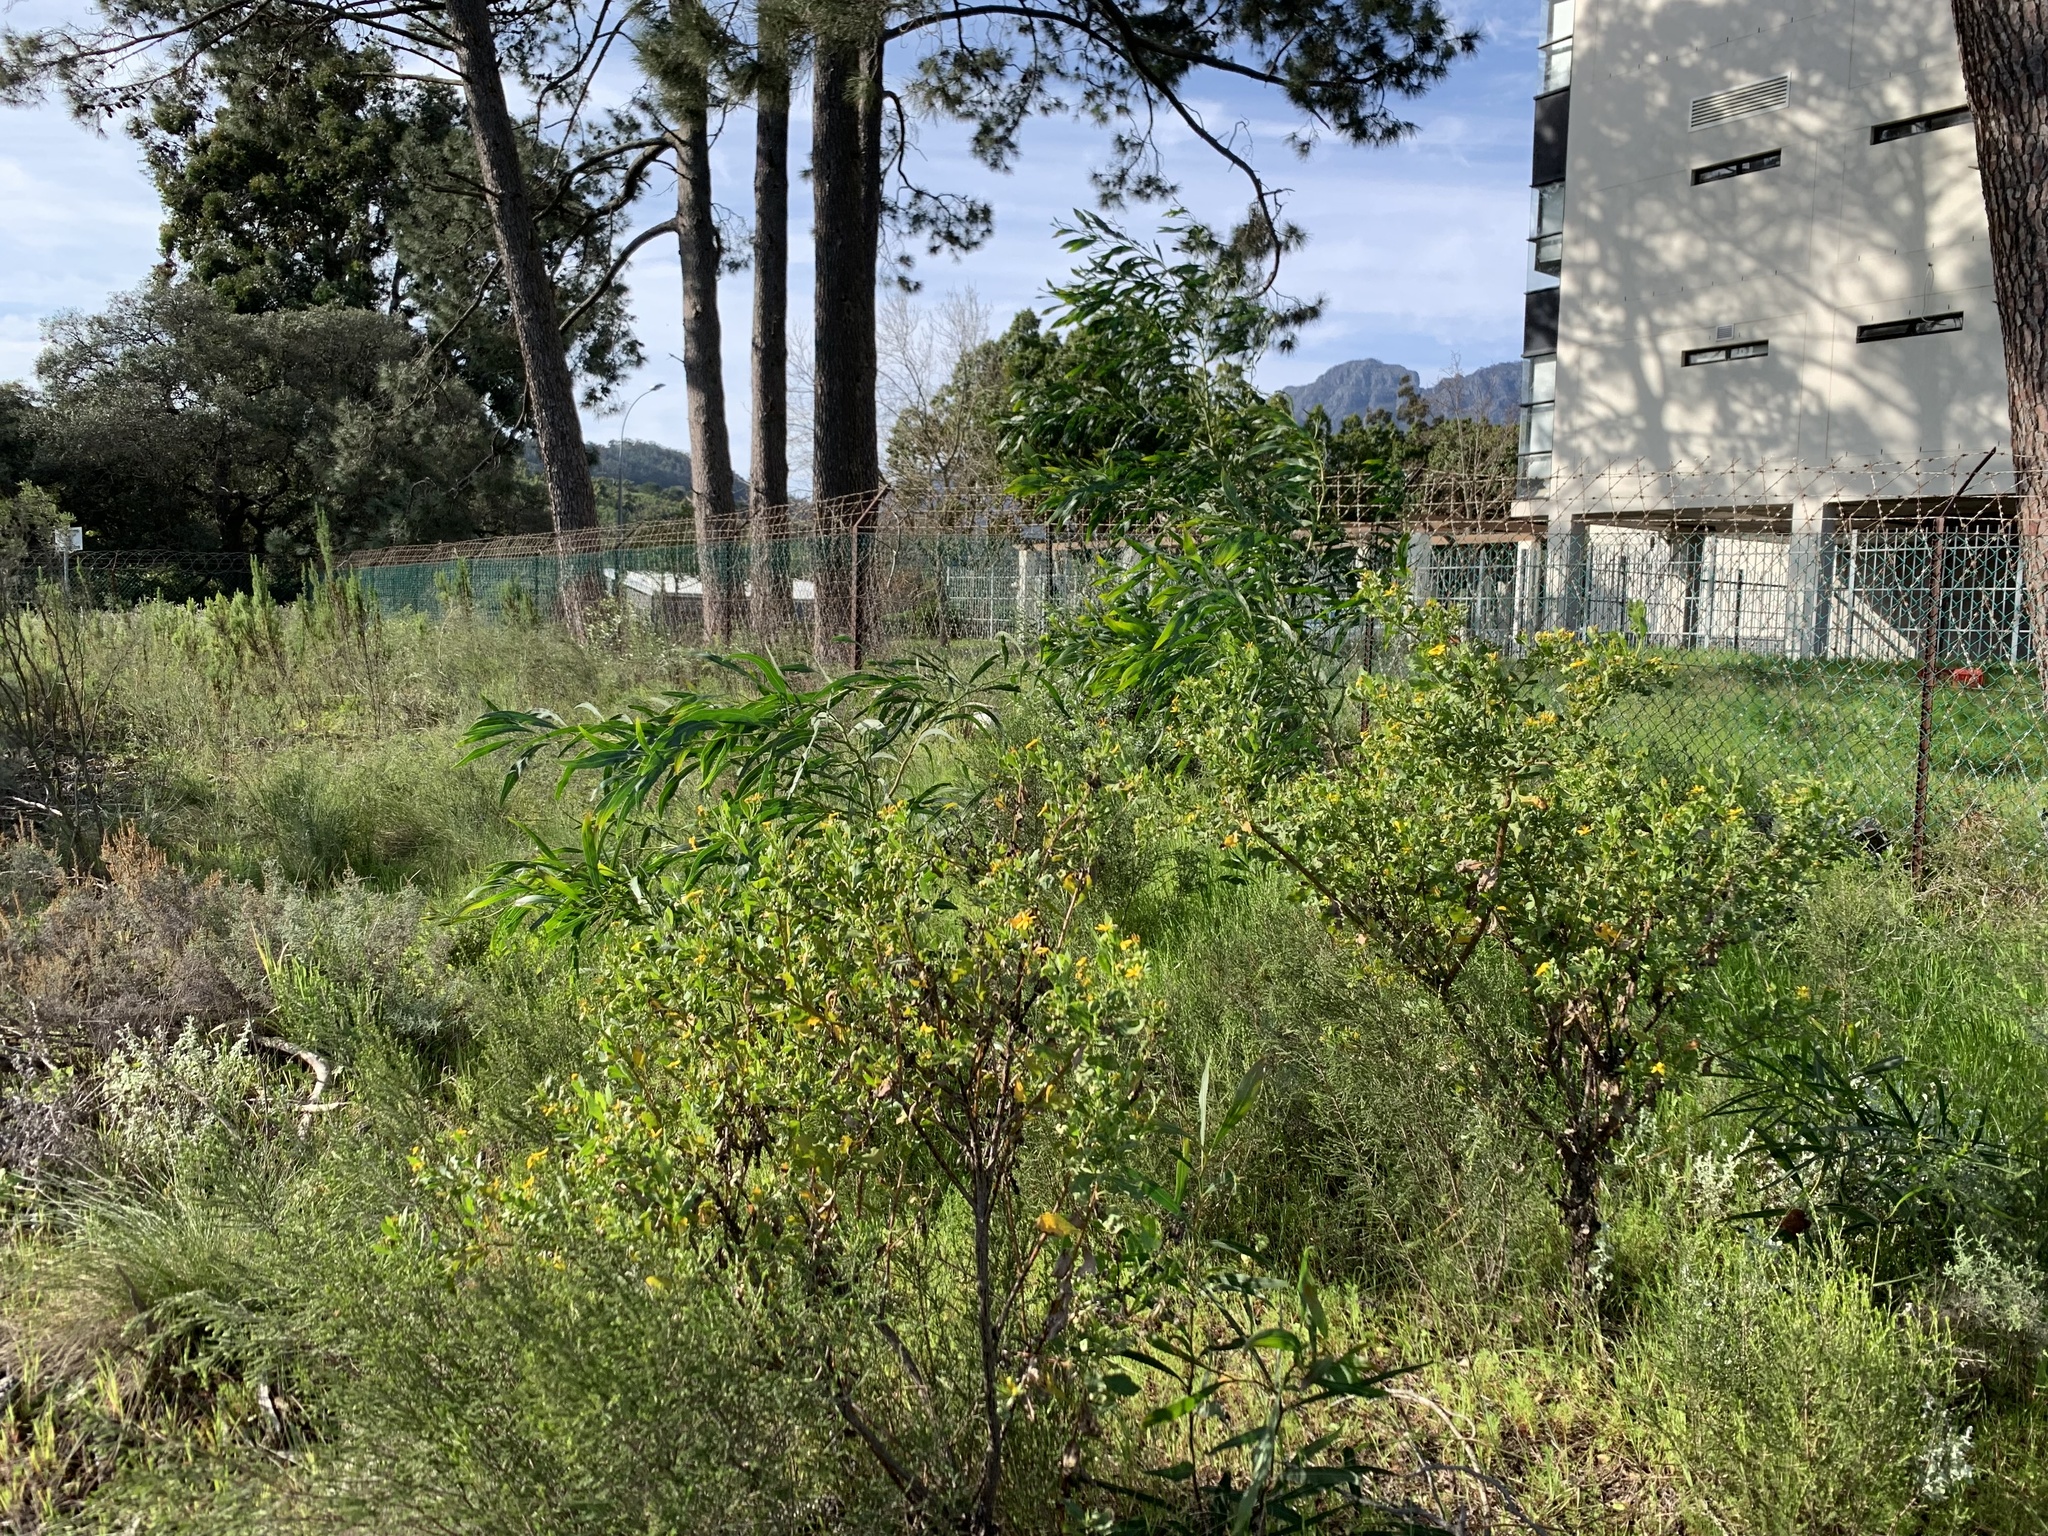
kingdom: Plantae
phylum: Tracheophyta
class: Magnoliopsida
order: Fabales
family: Fabaceae
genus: Acacia
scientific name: Acacia saligna
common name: Orange wattle
